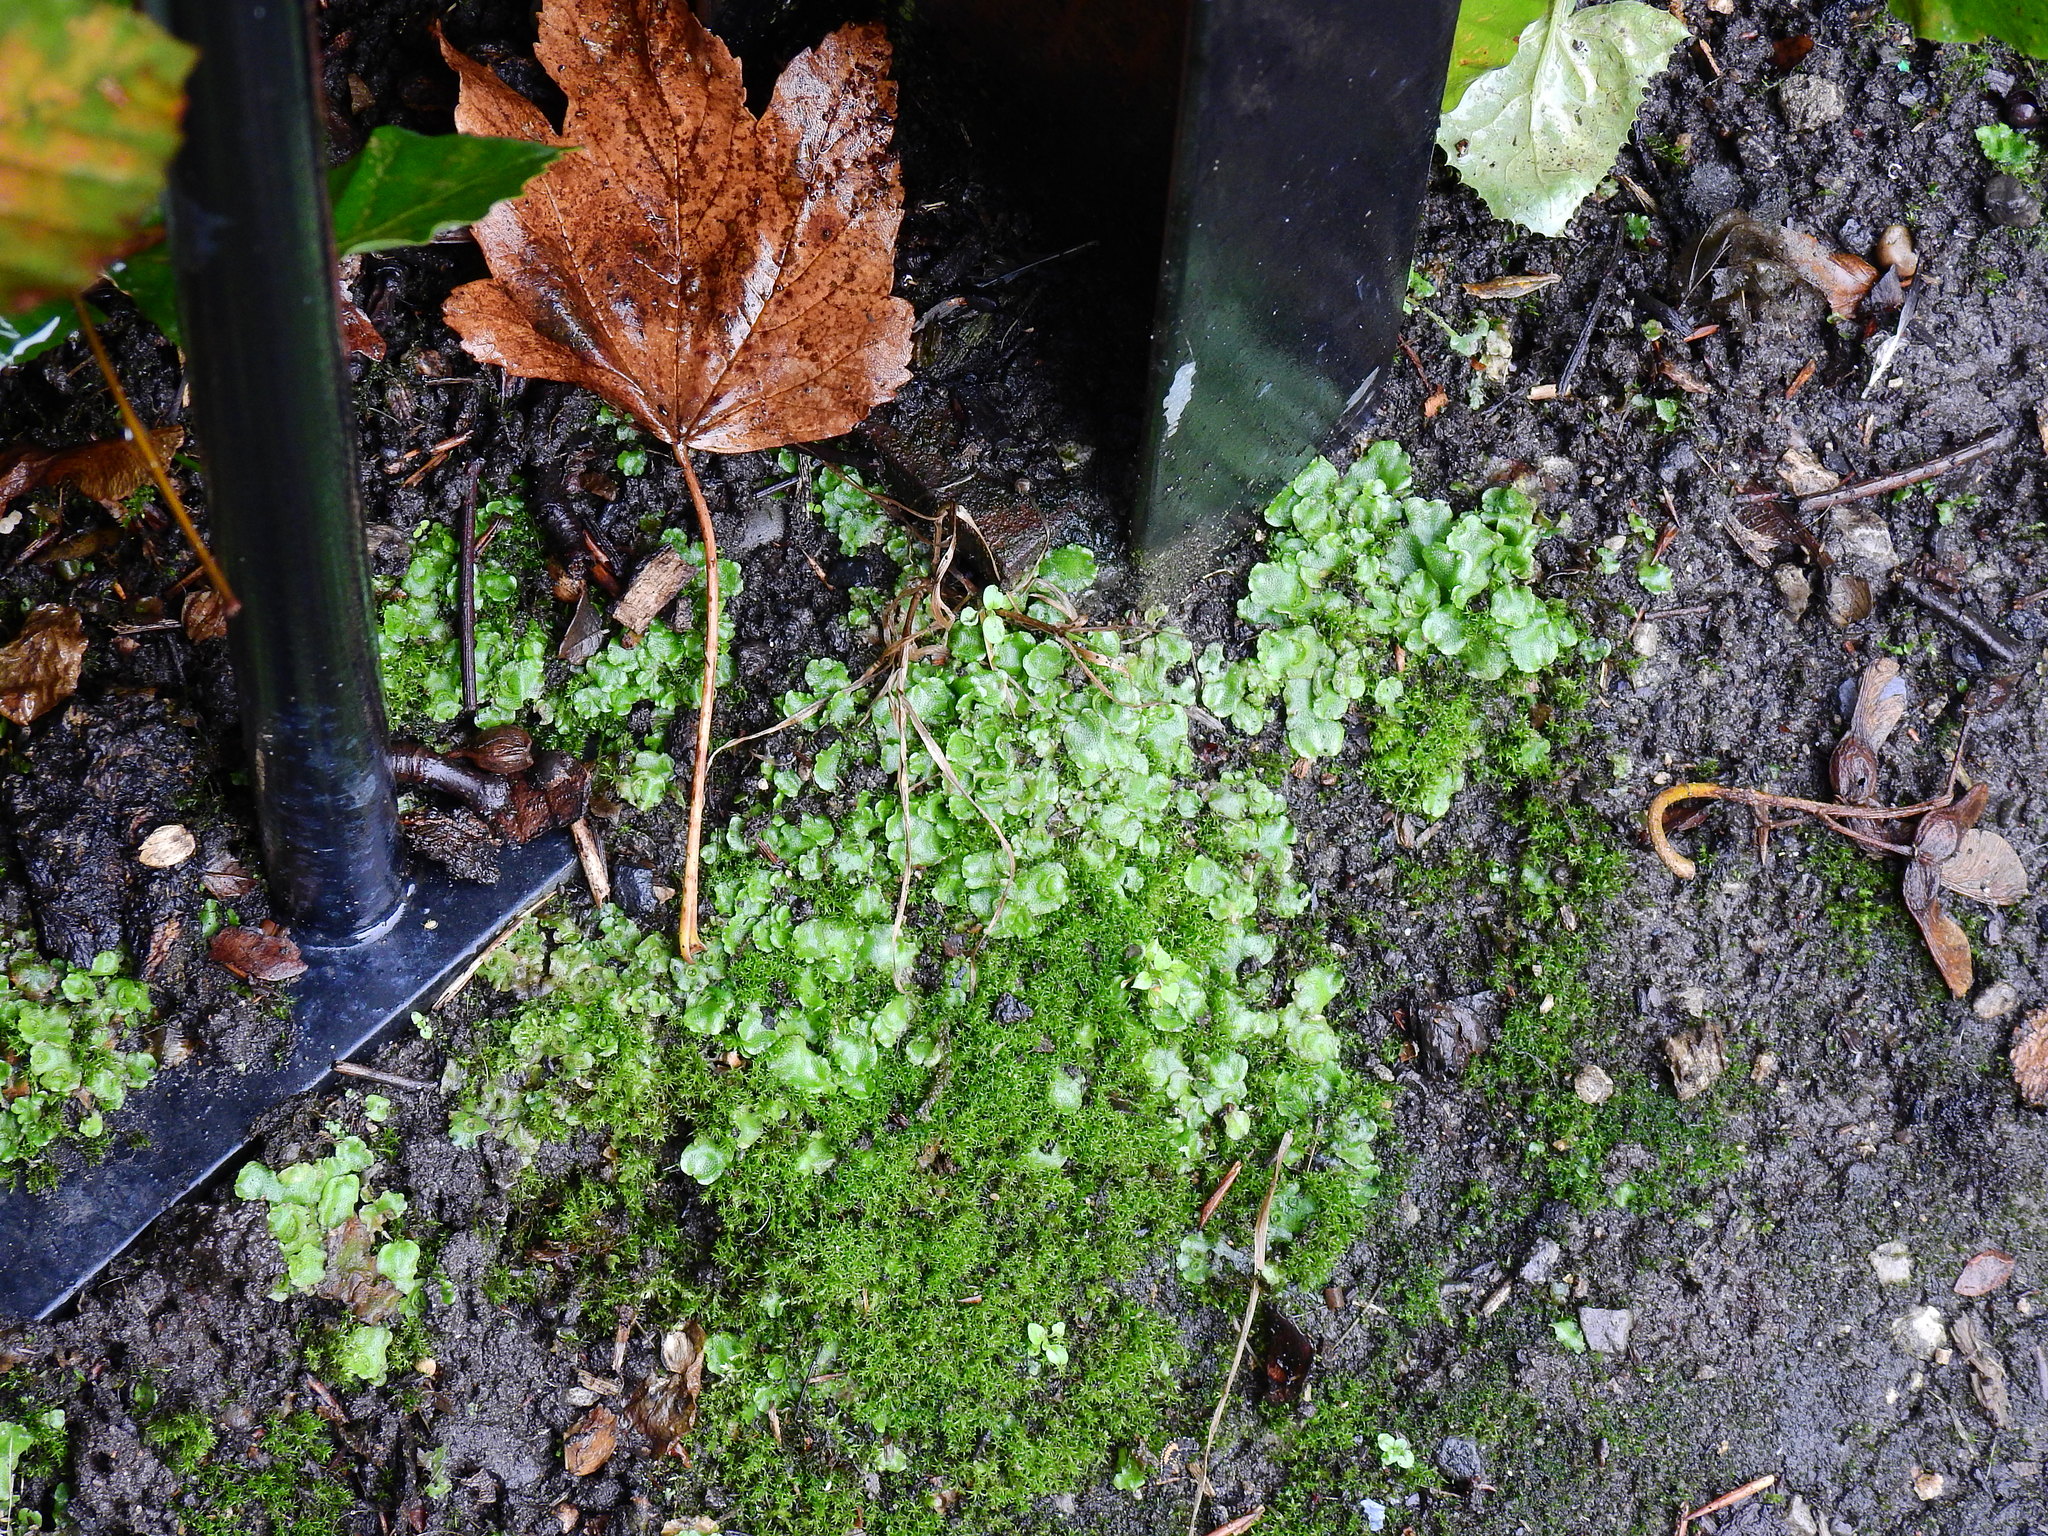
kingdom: Plantae
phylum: Marchantiophyta
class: Marchantiopsida
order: Lunulariales
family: Lunulariaceae
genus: Lunularia
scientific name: Lunularia cruciata
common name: Crescent-cup liverwort
